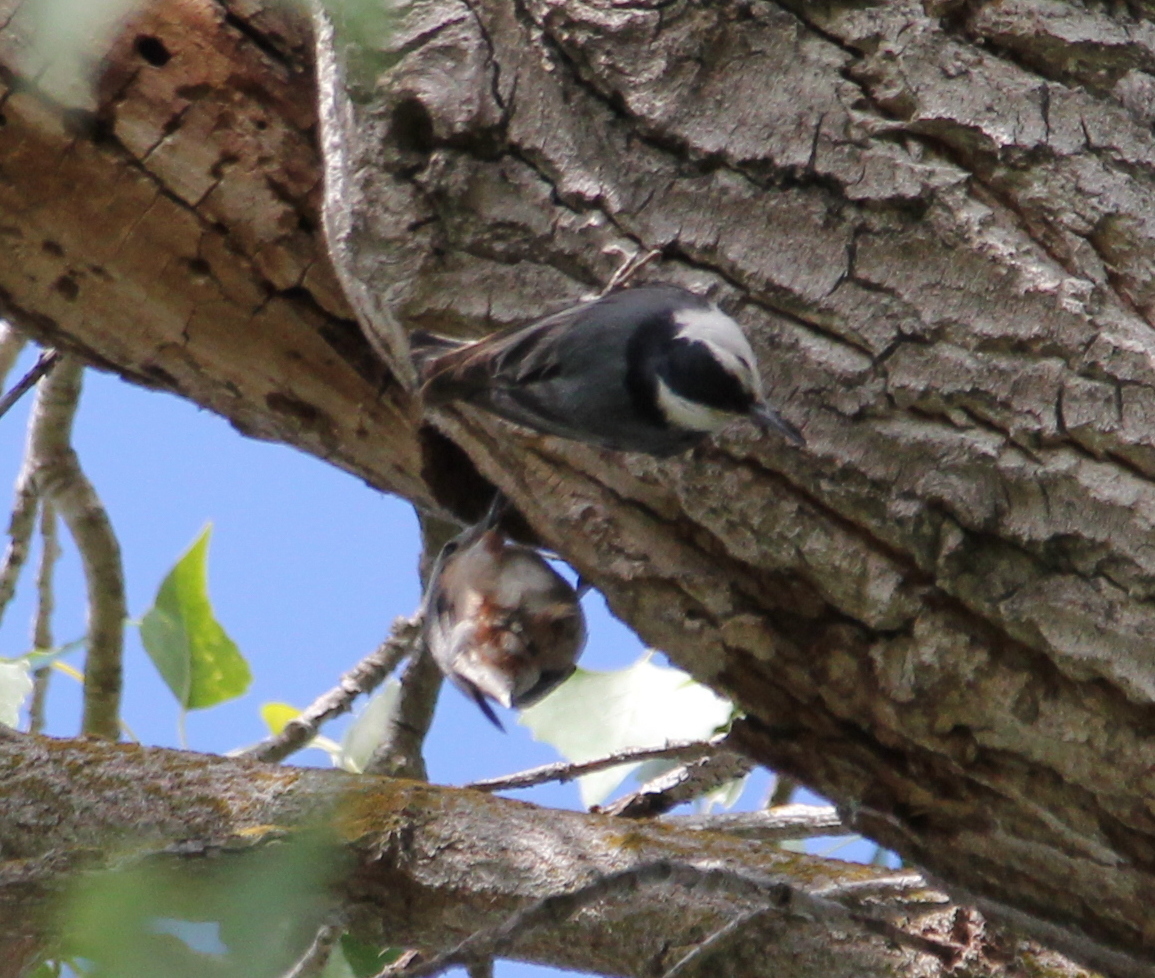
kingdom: Animalia
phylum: Chordata
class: Aves
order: Passeriformes
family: Sittidae
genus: Sitta
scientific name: Sitta carolinensis
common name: White-breasted nuthatch
